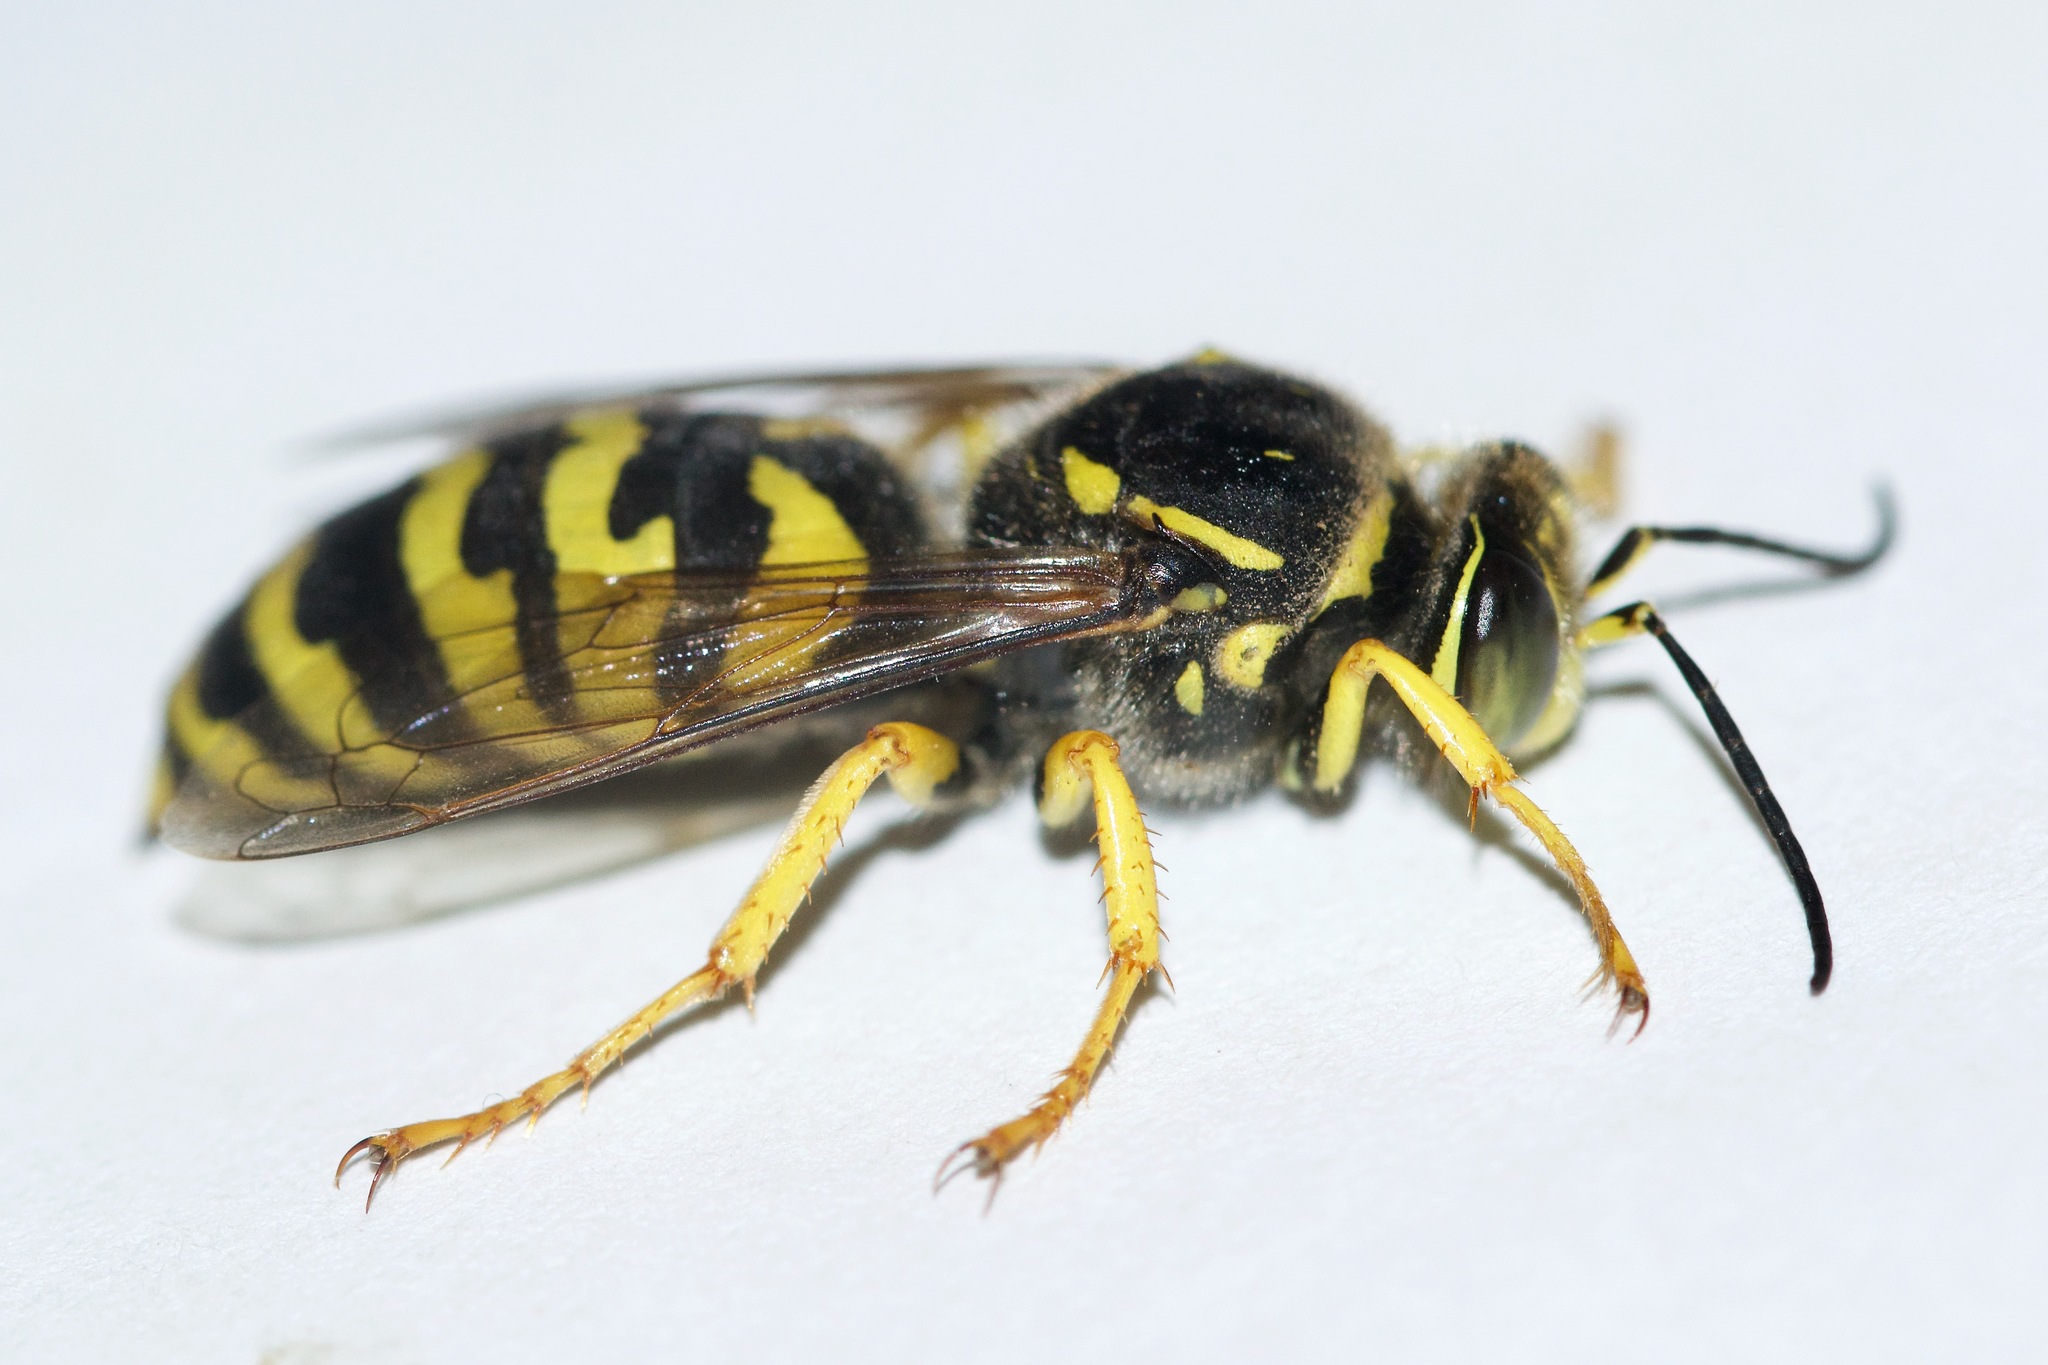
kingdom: Animalia
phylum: Arthropoda
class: Insecta
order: Hymenoptera
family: Crabronidae
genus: Stictiella
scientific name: Stictiella emarginata
